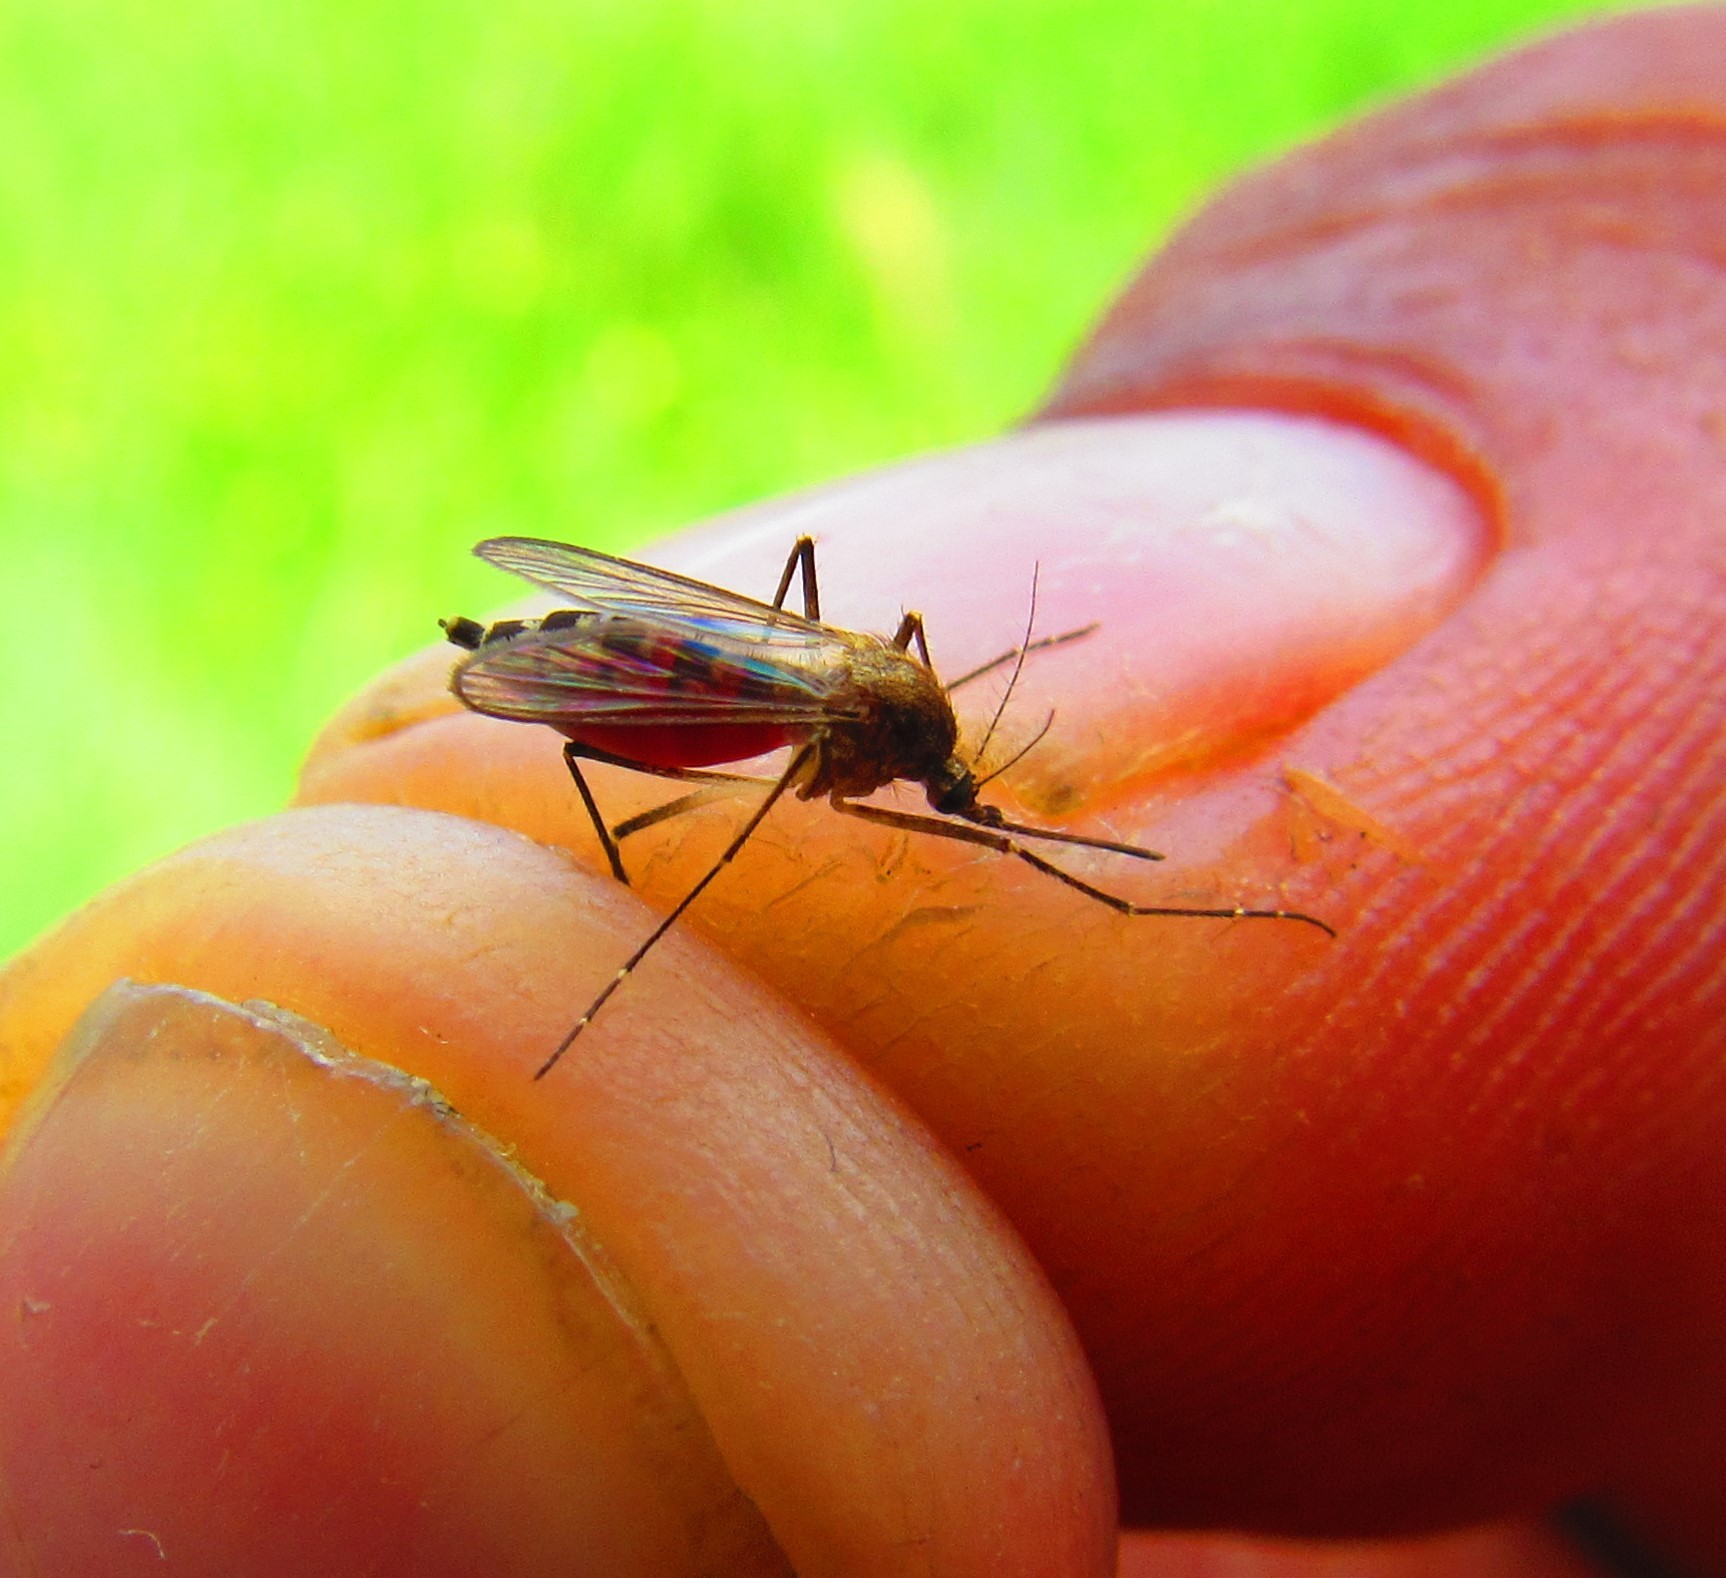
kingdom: Animalia
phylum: Arthropoda
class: Insecta
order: Diptera
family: Culicidae
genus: Aedes
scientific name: Aedes vexans
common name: Inland floodwater mosquito
